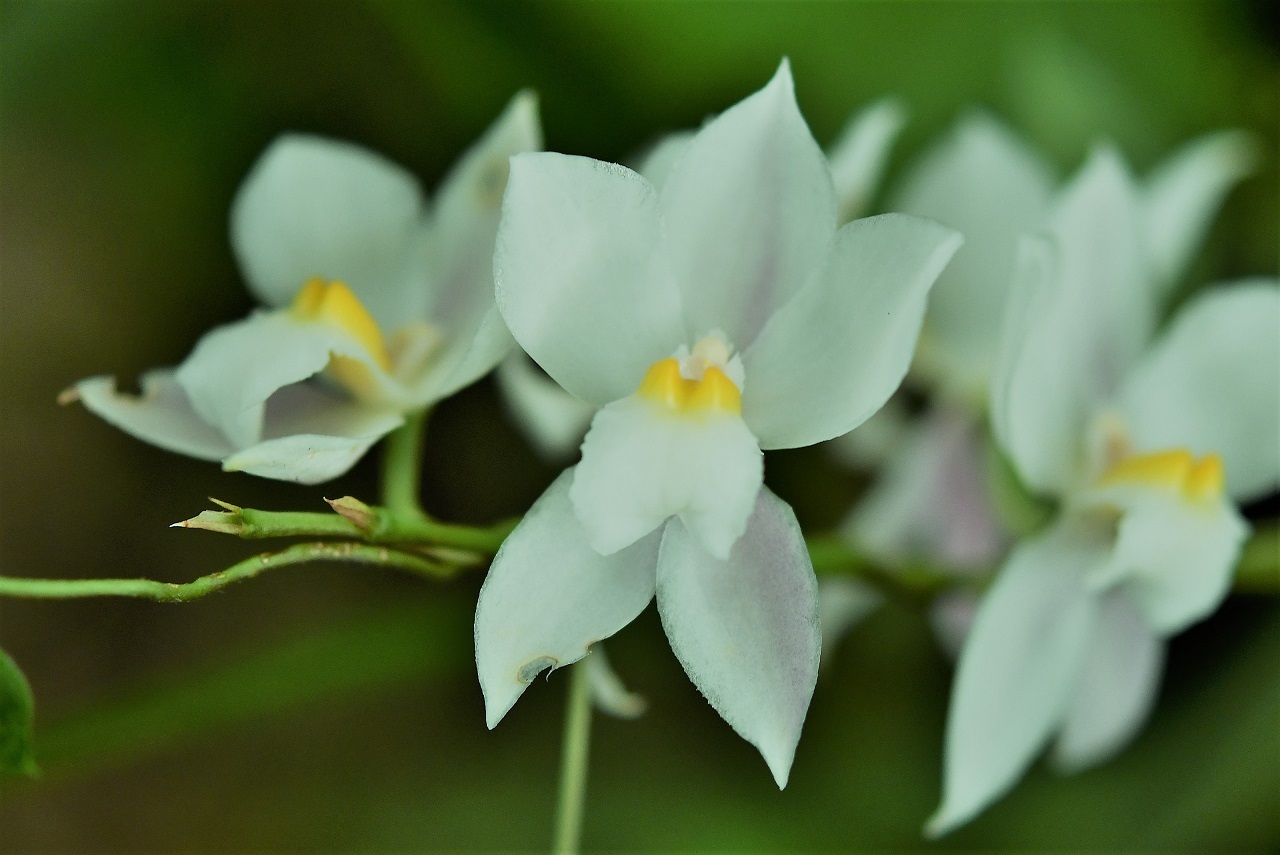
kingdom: Plantae
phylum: Tracheophyta
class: Liliopsida
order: Asparagales
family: Orchidaceae
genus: Cuitlauzina
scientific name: Cuitlauzina pulchella
